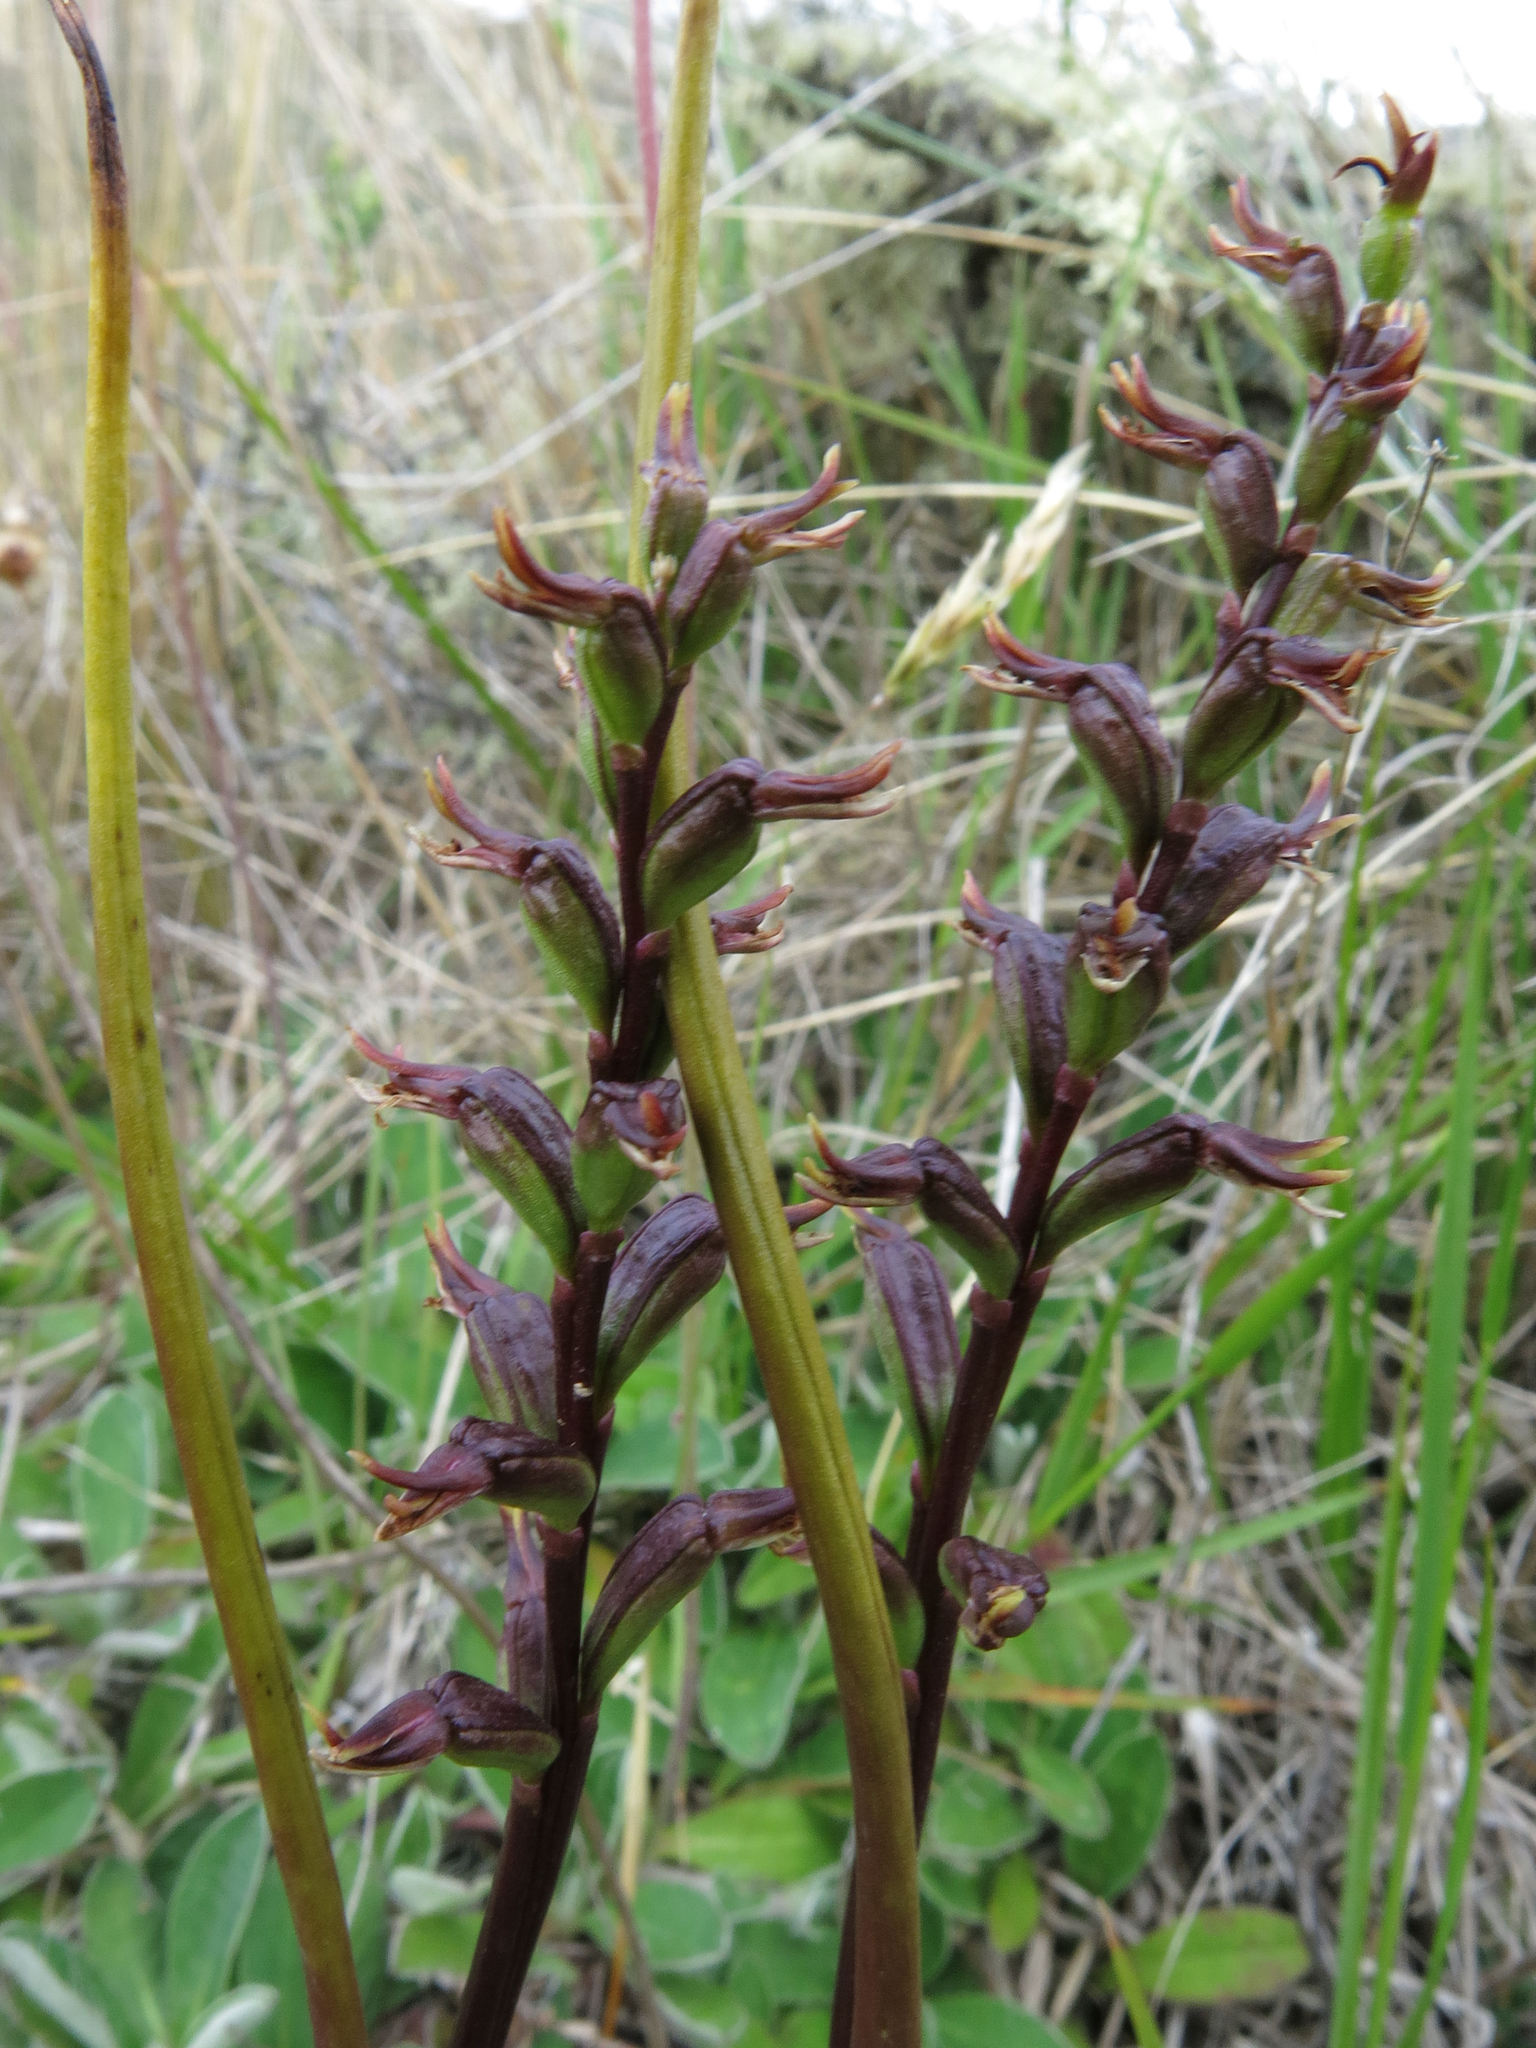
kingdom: Plantae
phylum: Tracheophyta
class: Liliopsida
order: Asparagales
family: Orchidaceae
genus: Prasophyllum
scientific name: Prasophyllum colensoi
